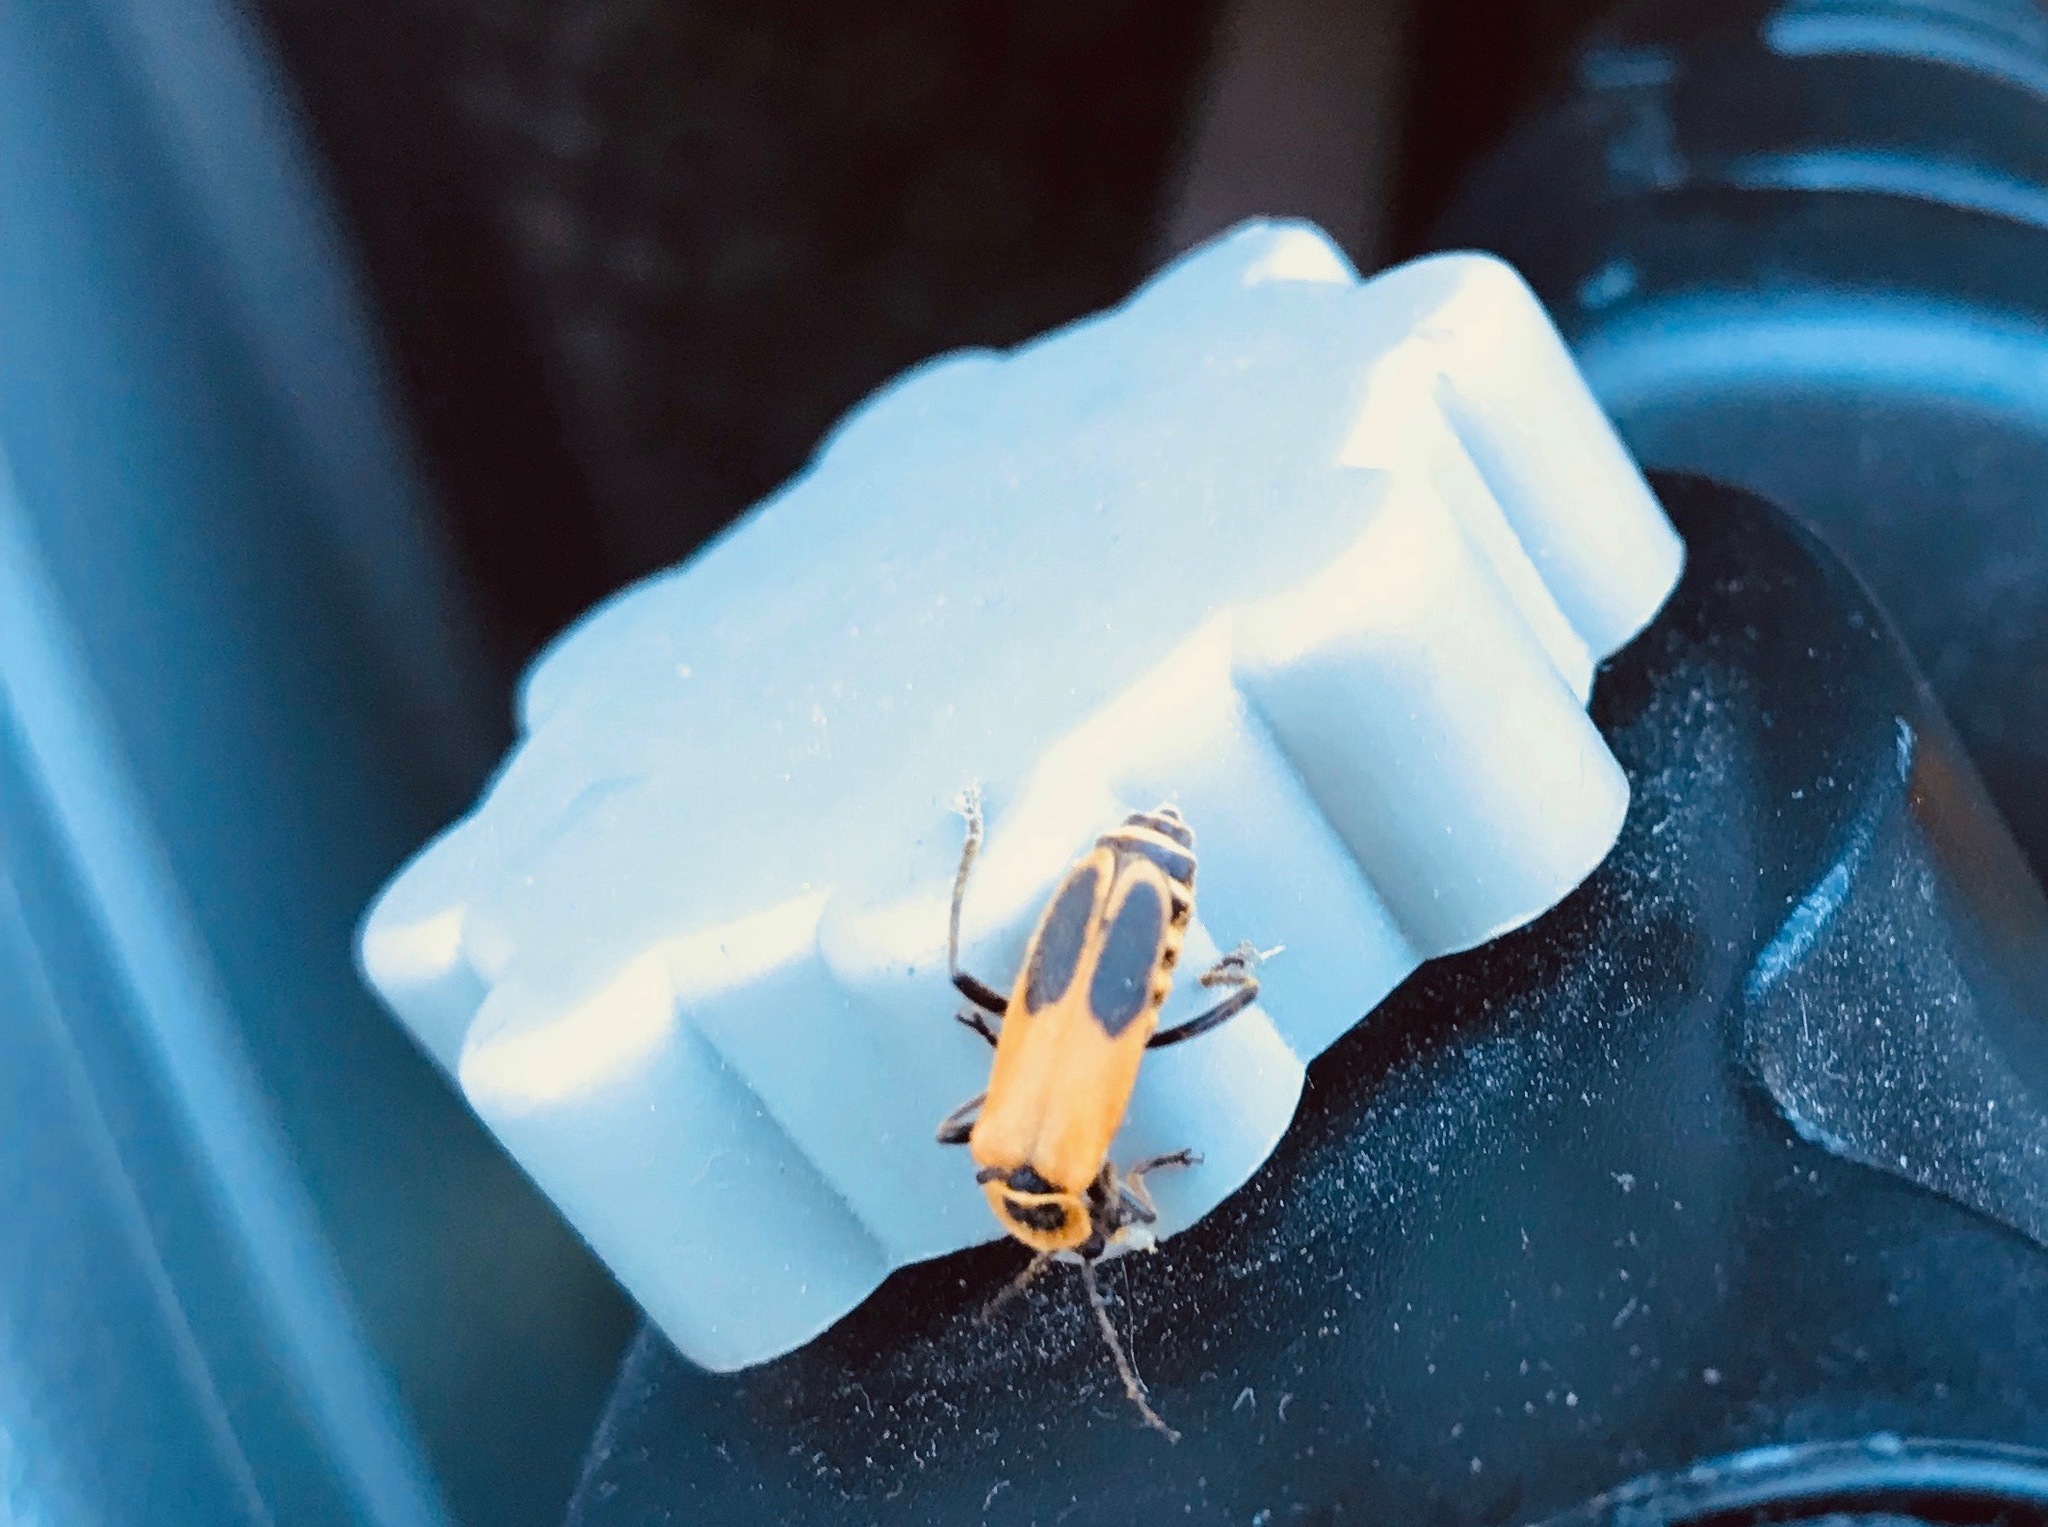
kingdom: Animalia
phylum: Arthropoda
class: Insecta
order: Coleoptera
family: Cantharidae
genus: Chauliognathus
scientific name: Chauliognathus pensylvanicus
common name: Goldenrod soldier beetle
